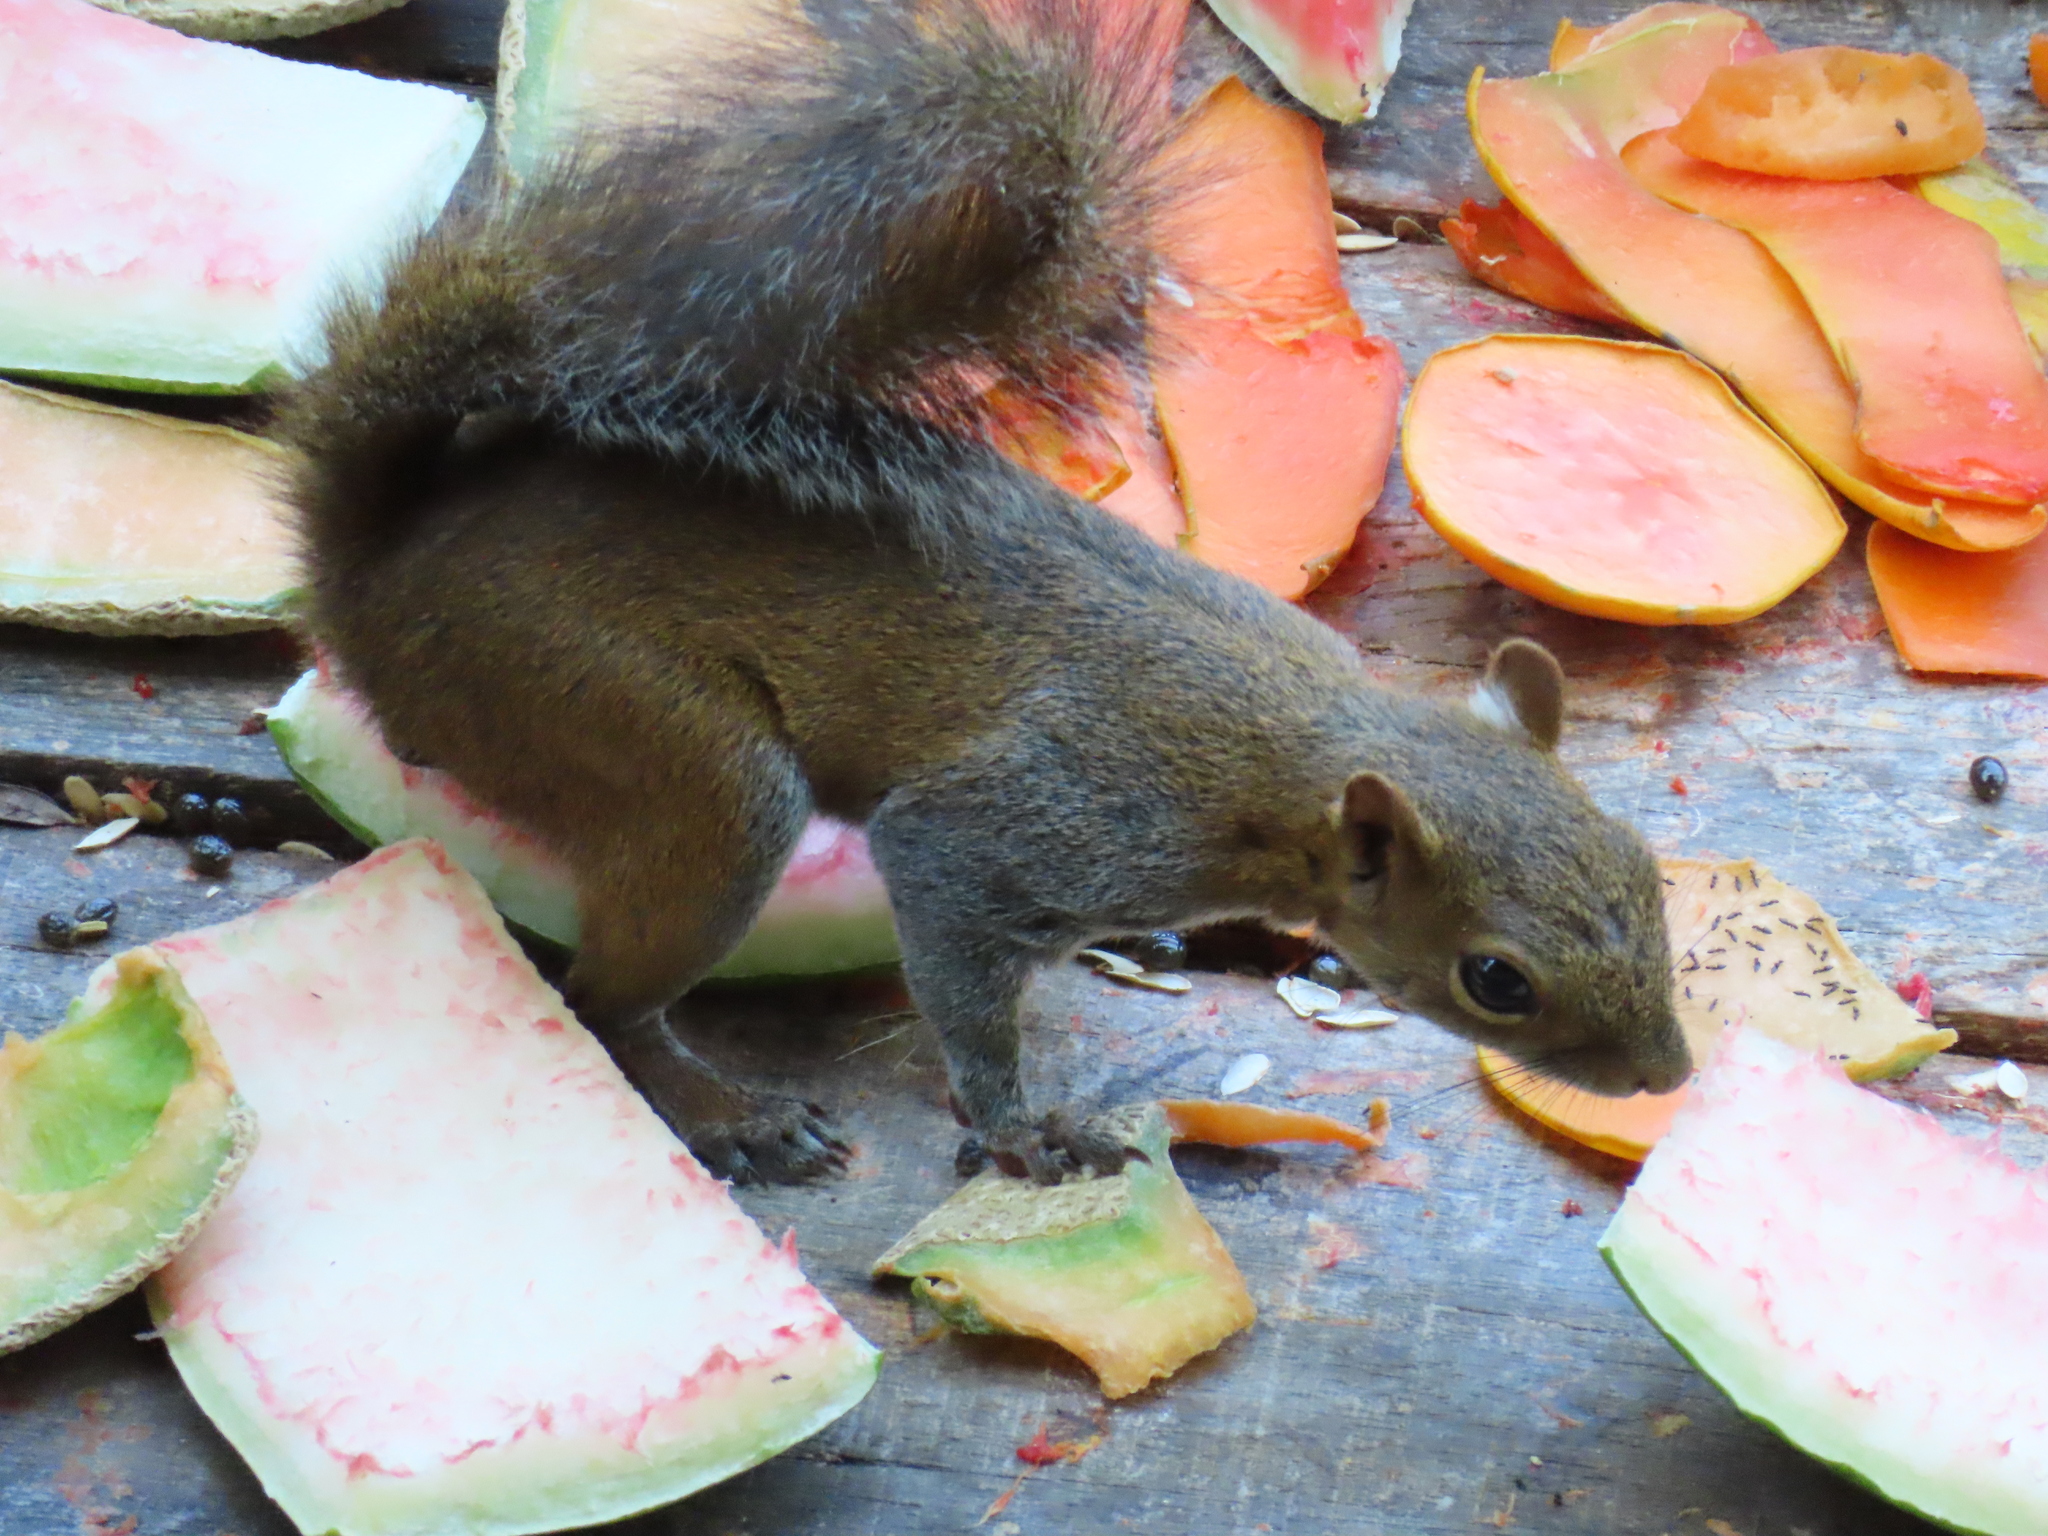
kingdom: Animalia
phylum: Chordata
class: Mammalia
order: Rodentia
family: Sciuridae
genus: Sciurus
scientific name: Sciurus deppei
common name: Deppe's squirrel
